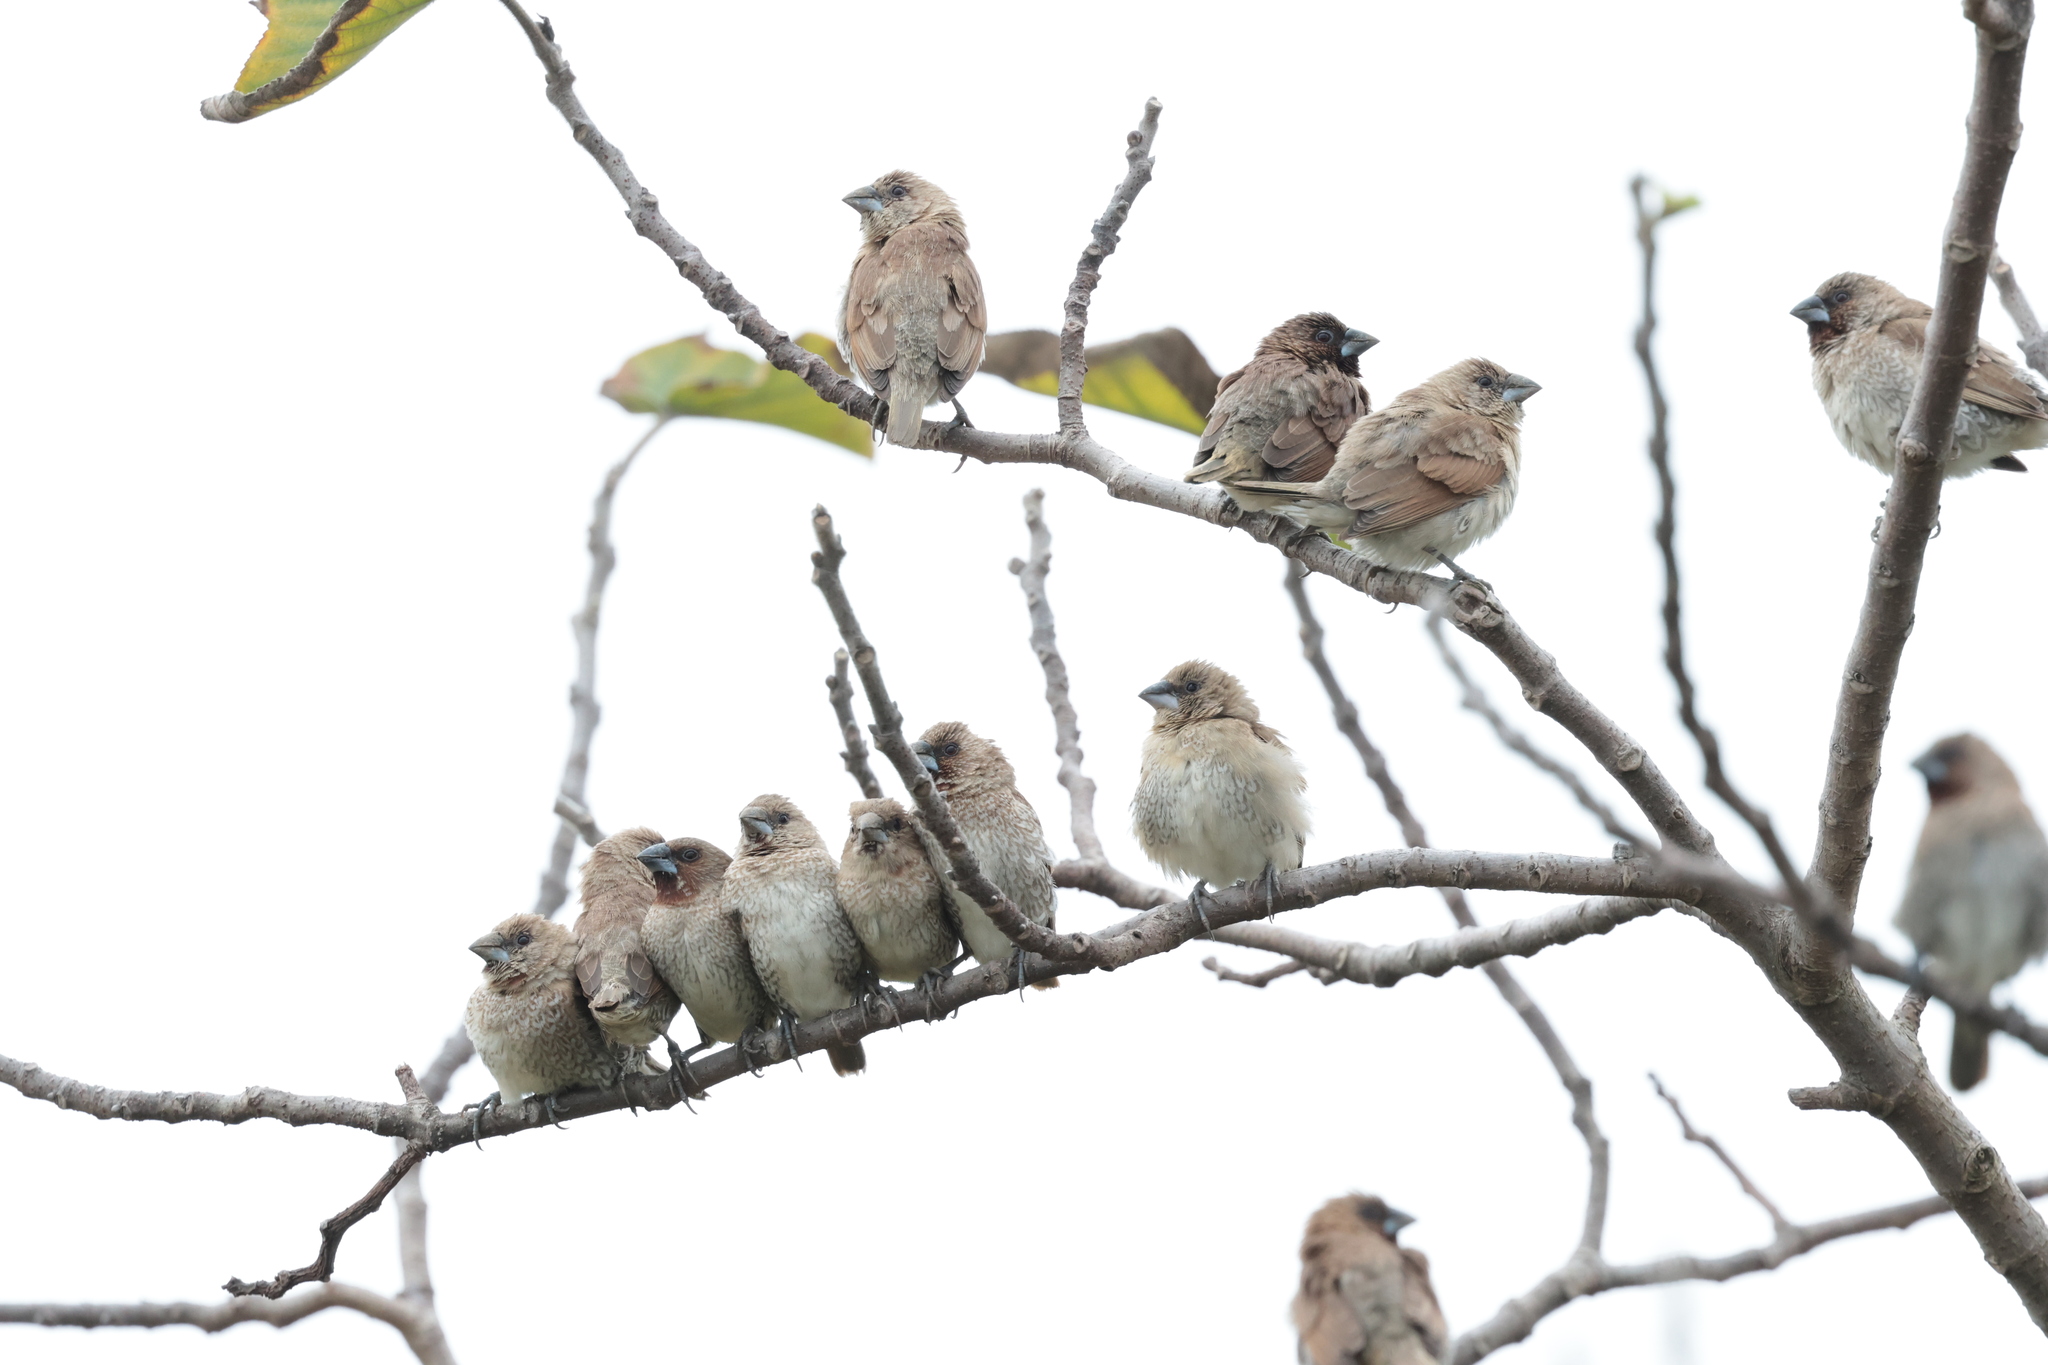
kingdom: Animalia
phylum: Chordata
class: Aves
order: Passeriformes
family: Estrildidae
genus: Lonchura
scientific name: Lonchura punctulata
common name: Scaly-breasted munia
